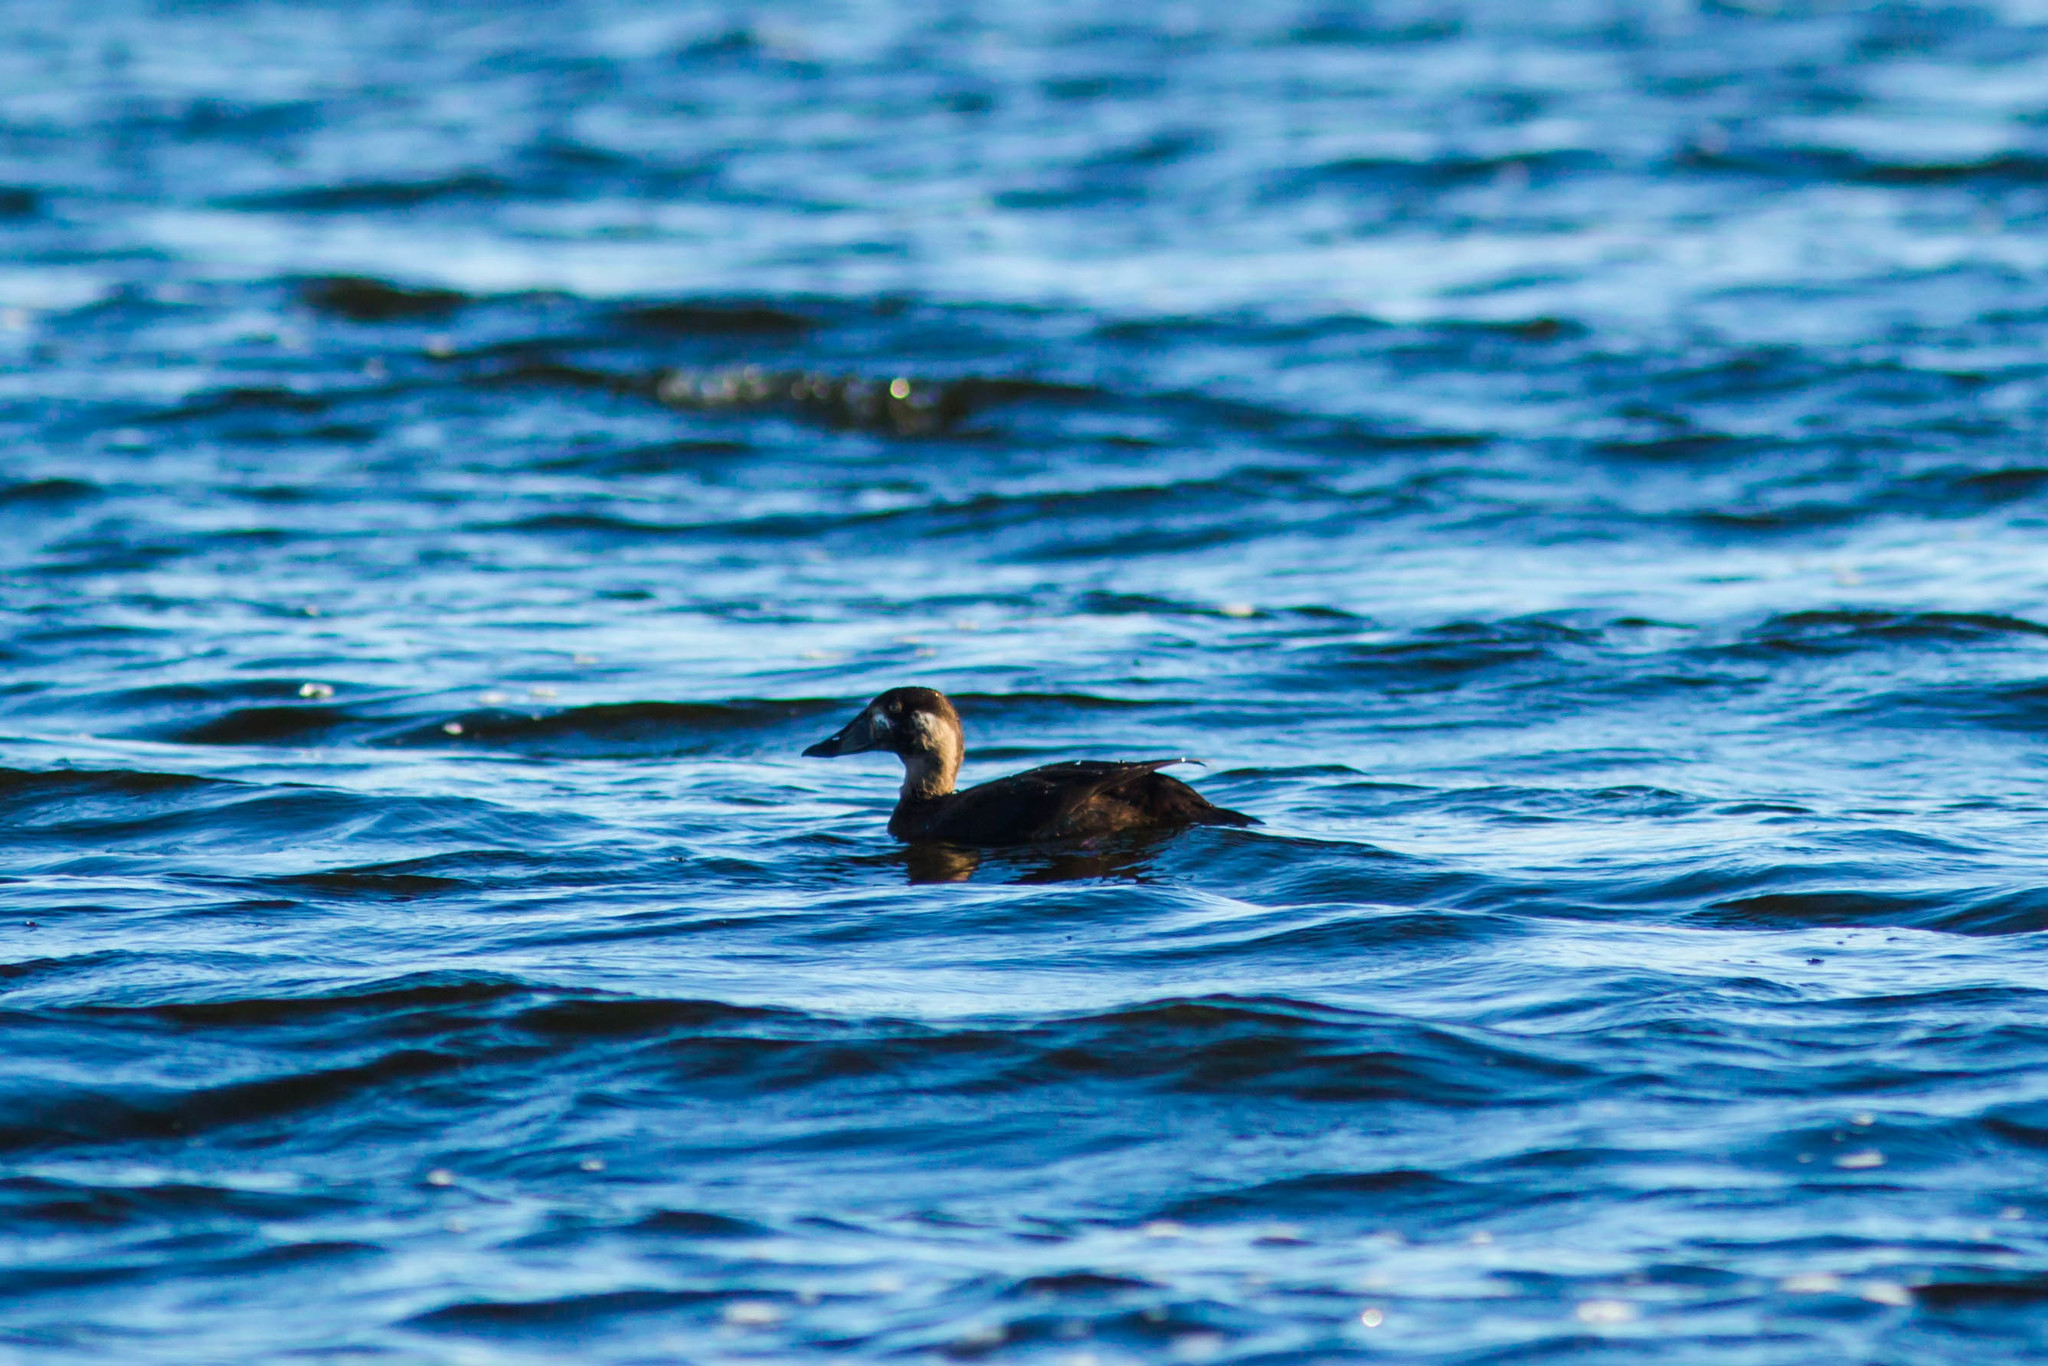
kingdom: Animalia
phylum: Chordata
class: Aves
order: Anseriformes
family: Anatidae
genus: Melanitta
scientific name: Melanitta perspicillata
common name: Surf scoter
